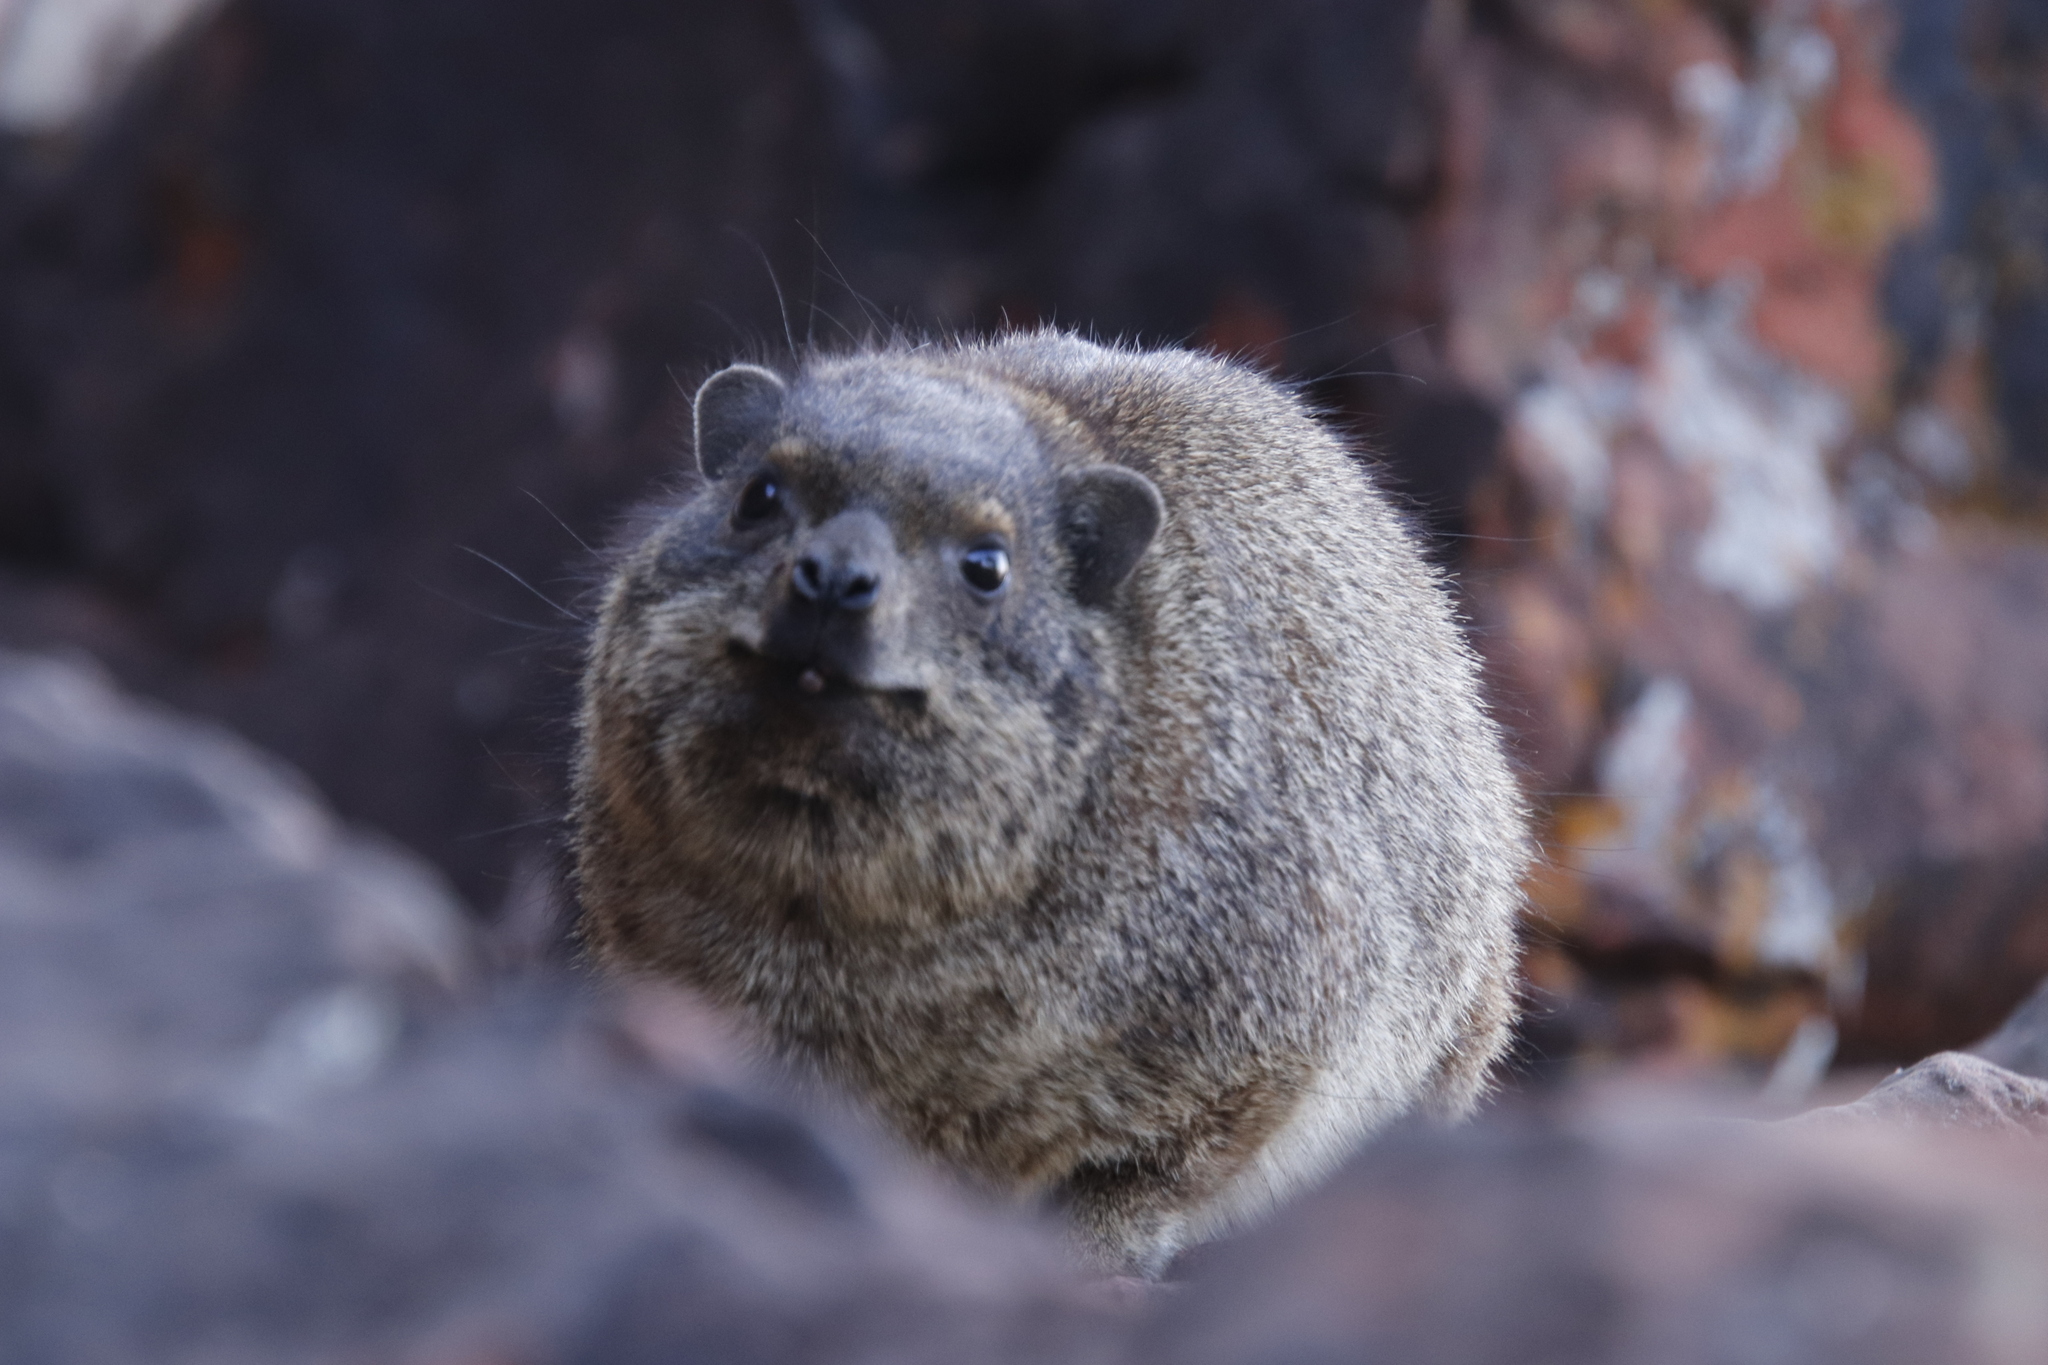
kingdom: Animalia
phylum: Chordata
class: Mammalia
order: Hyracoidea
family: Procaviidae
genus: Procavia
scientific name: Procavia capensis
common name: Rock hyrax
